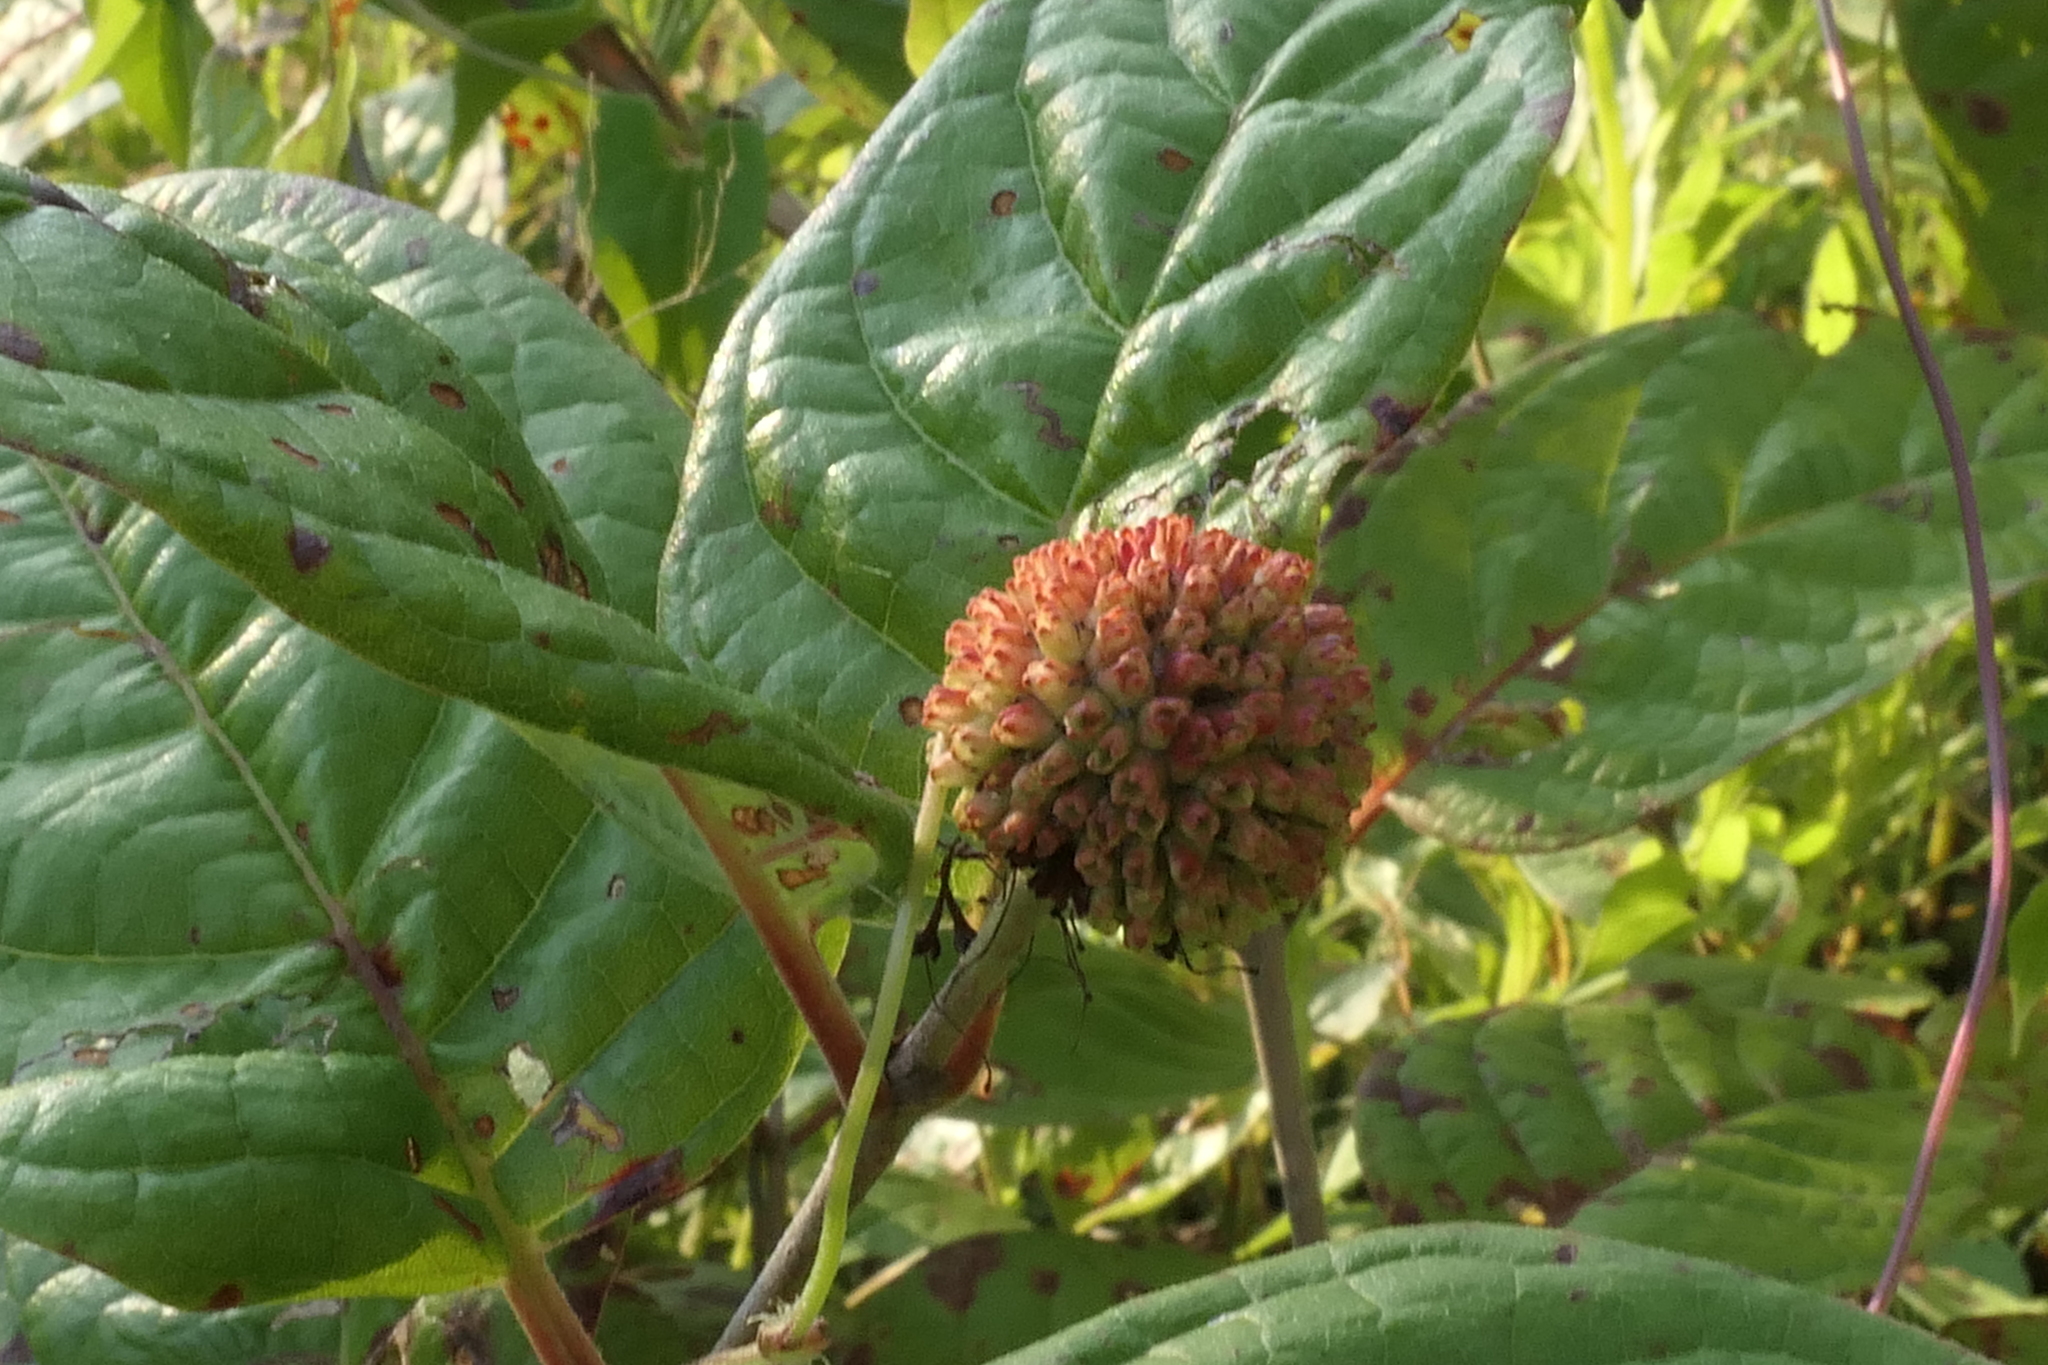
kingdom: Plantae
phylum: Tracheophyta
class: Magnoliopsida
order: Gentianales
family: Rubiaceae
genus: Cephalanthus
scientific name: Cephalanthus occidentalis
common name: Button-willow
